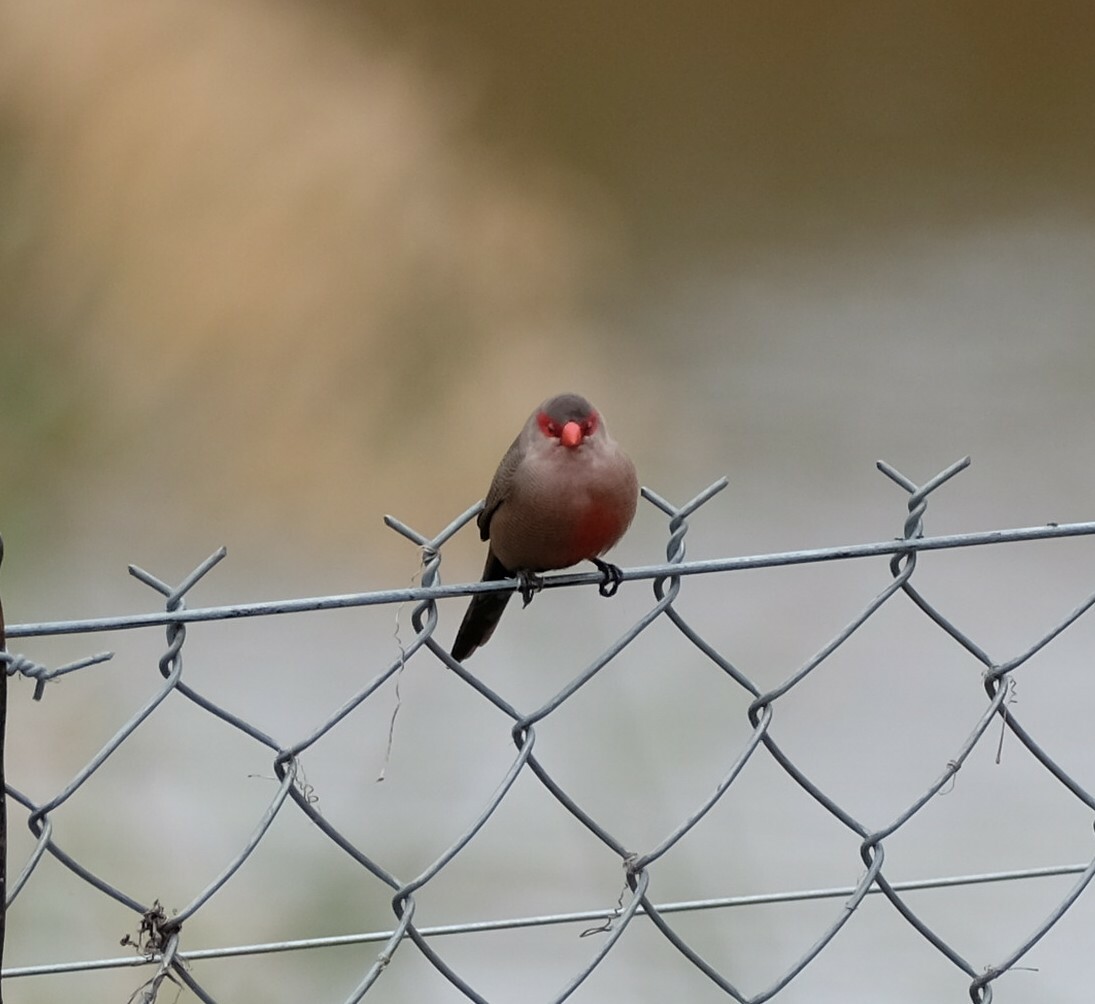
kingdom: Animalia
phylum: Chordata
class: Aves
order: Passeriformes
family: Estrildidae
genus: Estrilda
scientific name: Estrilda astrild
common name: Common waxbill
